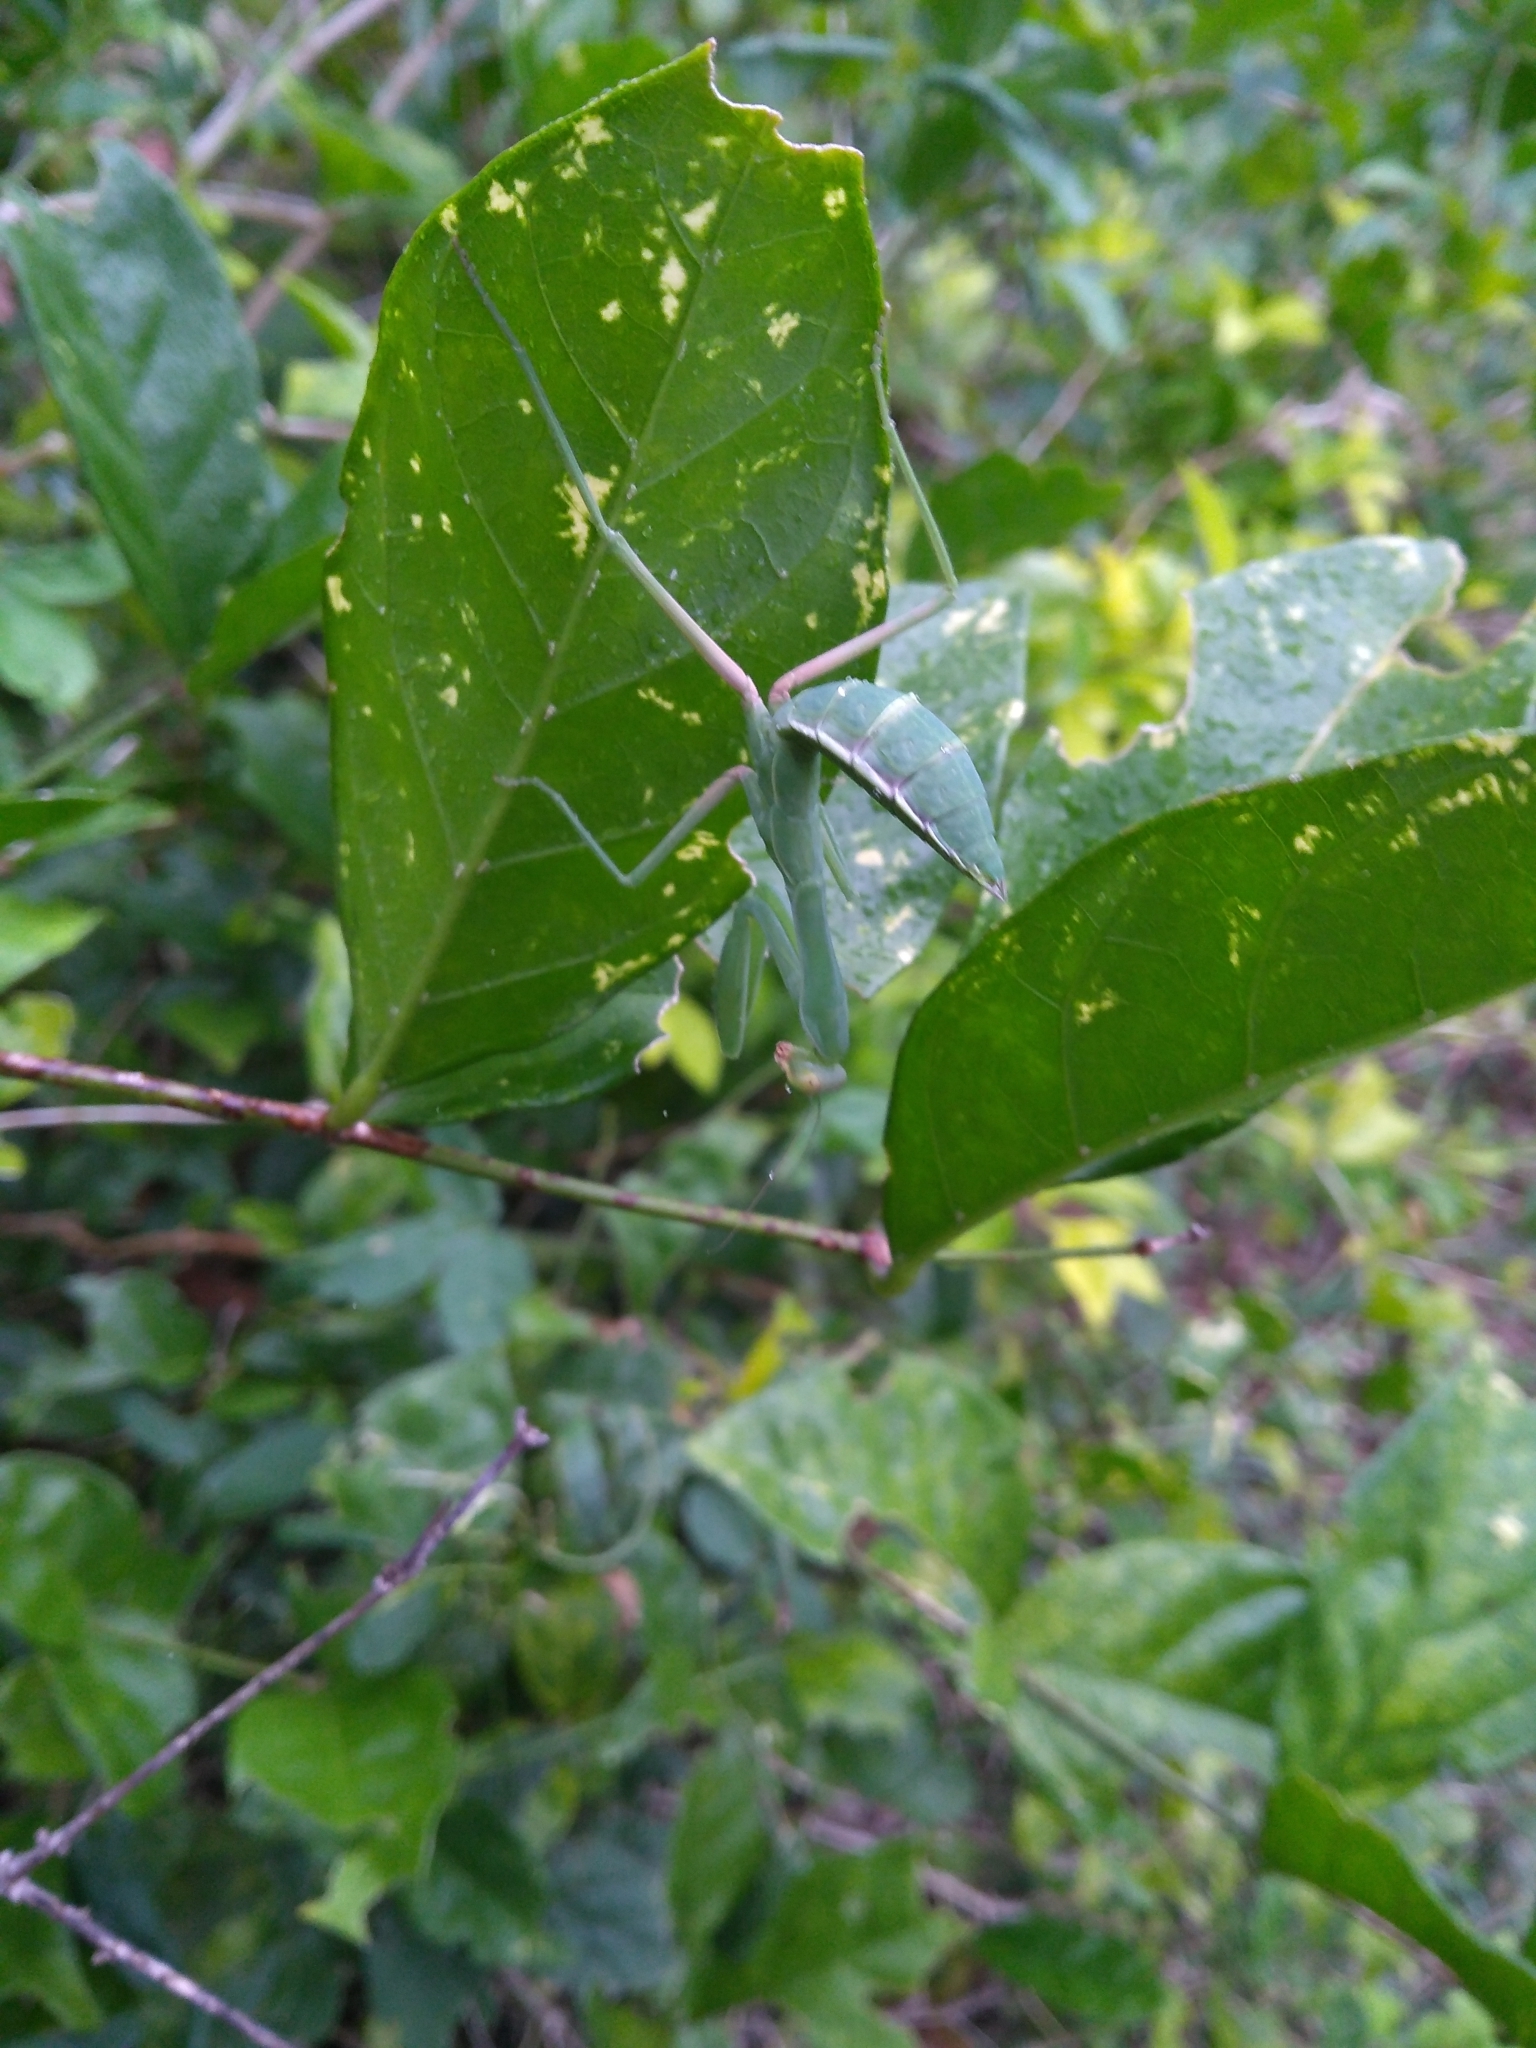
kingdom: Animalia
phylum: Arthropoda
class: Insecta
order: Mantodea
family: Mantidae
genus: Hierodula
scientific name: Hierodula tenuidentata
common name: Giant asian mantis
